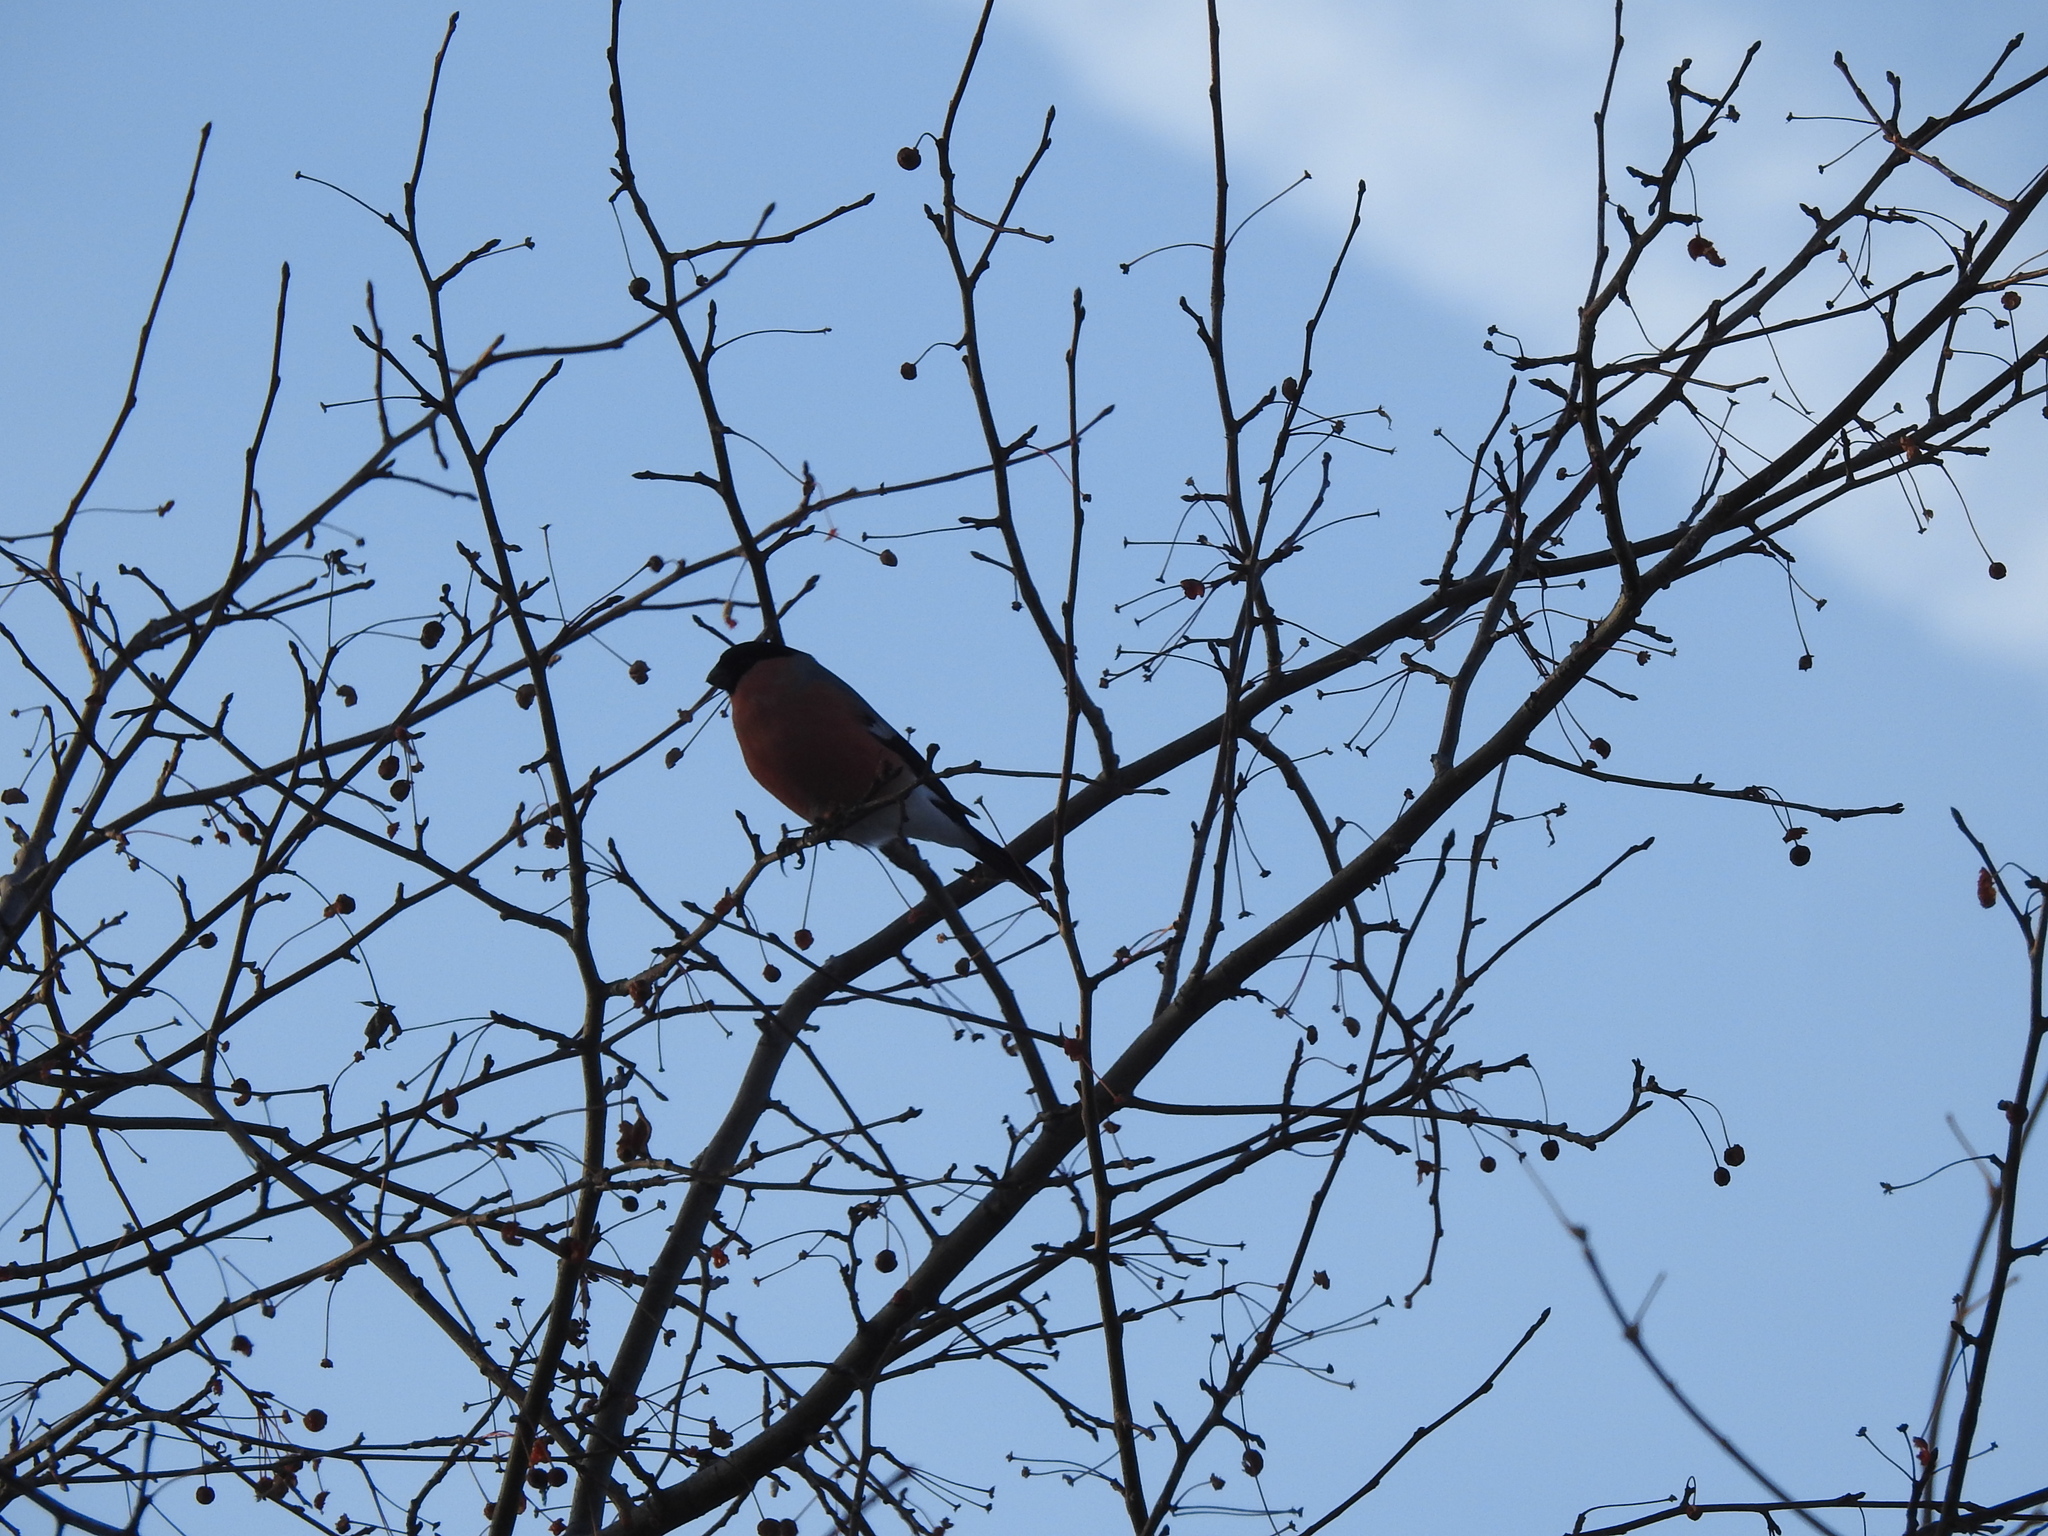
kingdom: Animalia
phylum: Chordata
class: Aves
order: Passeriformes
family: Fringillidae
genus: Pyrrhula
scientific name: Pyrrhula pyrrhula
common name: Eurasian bullfinch
